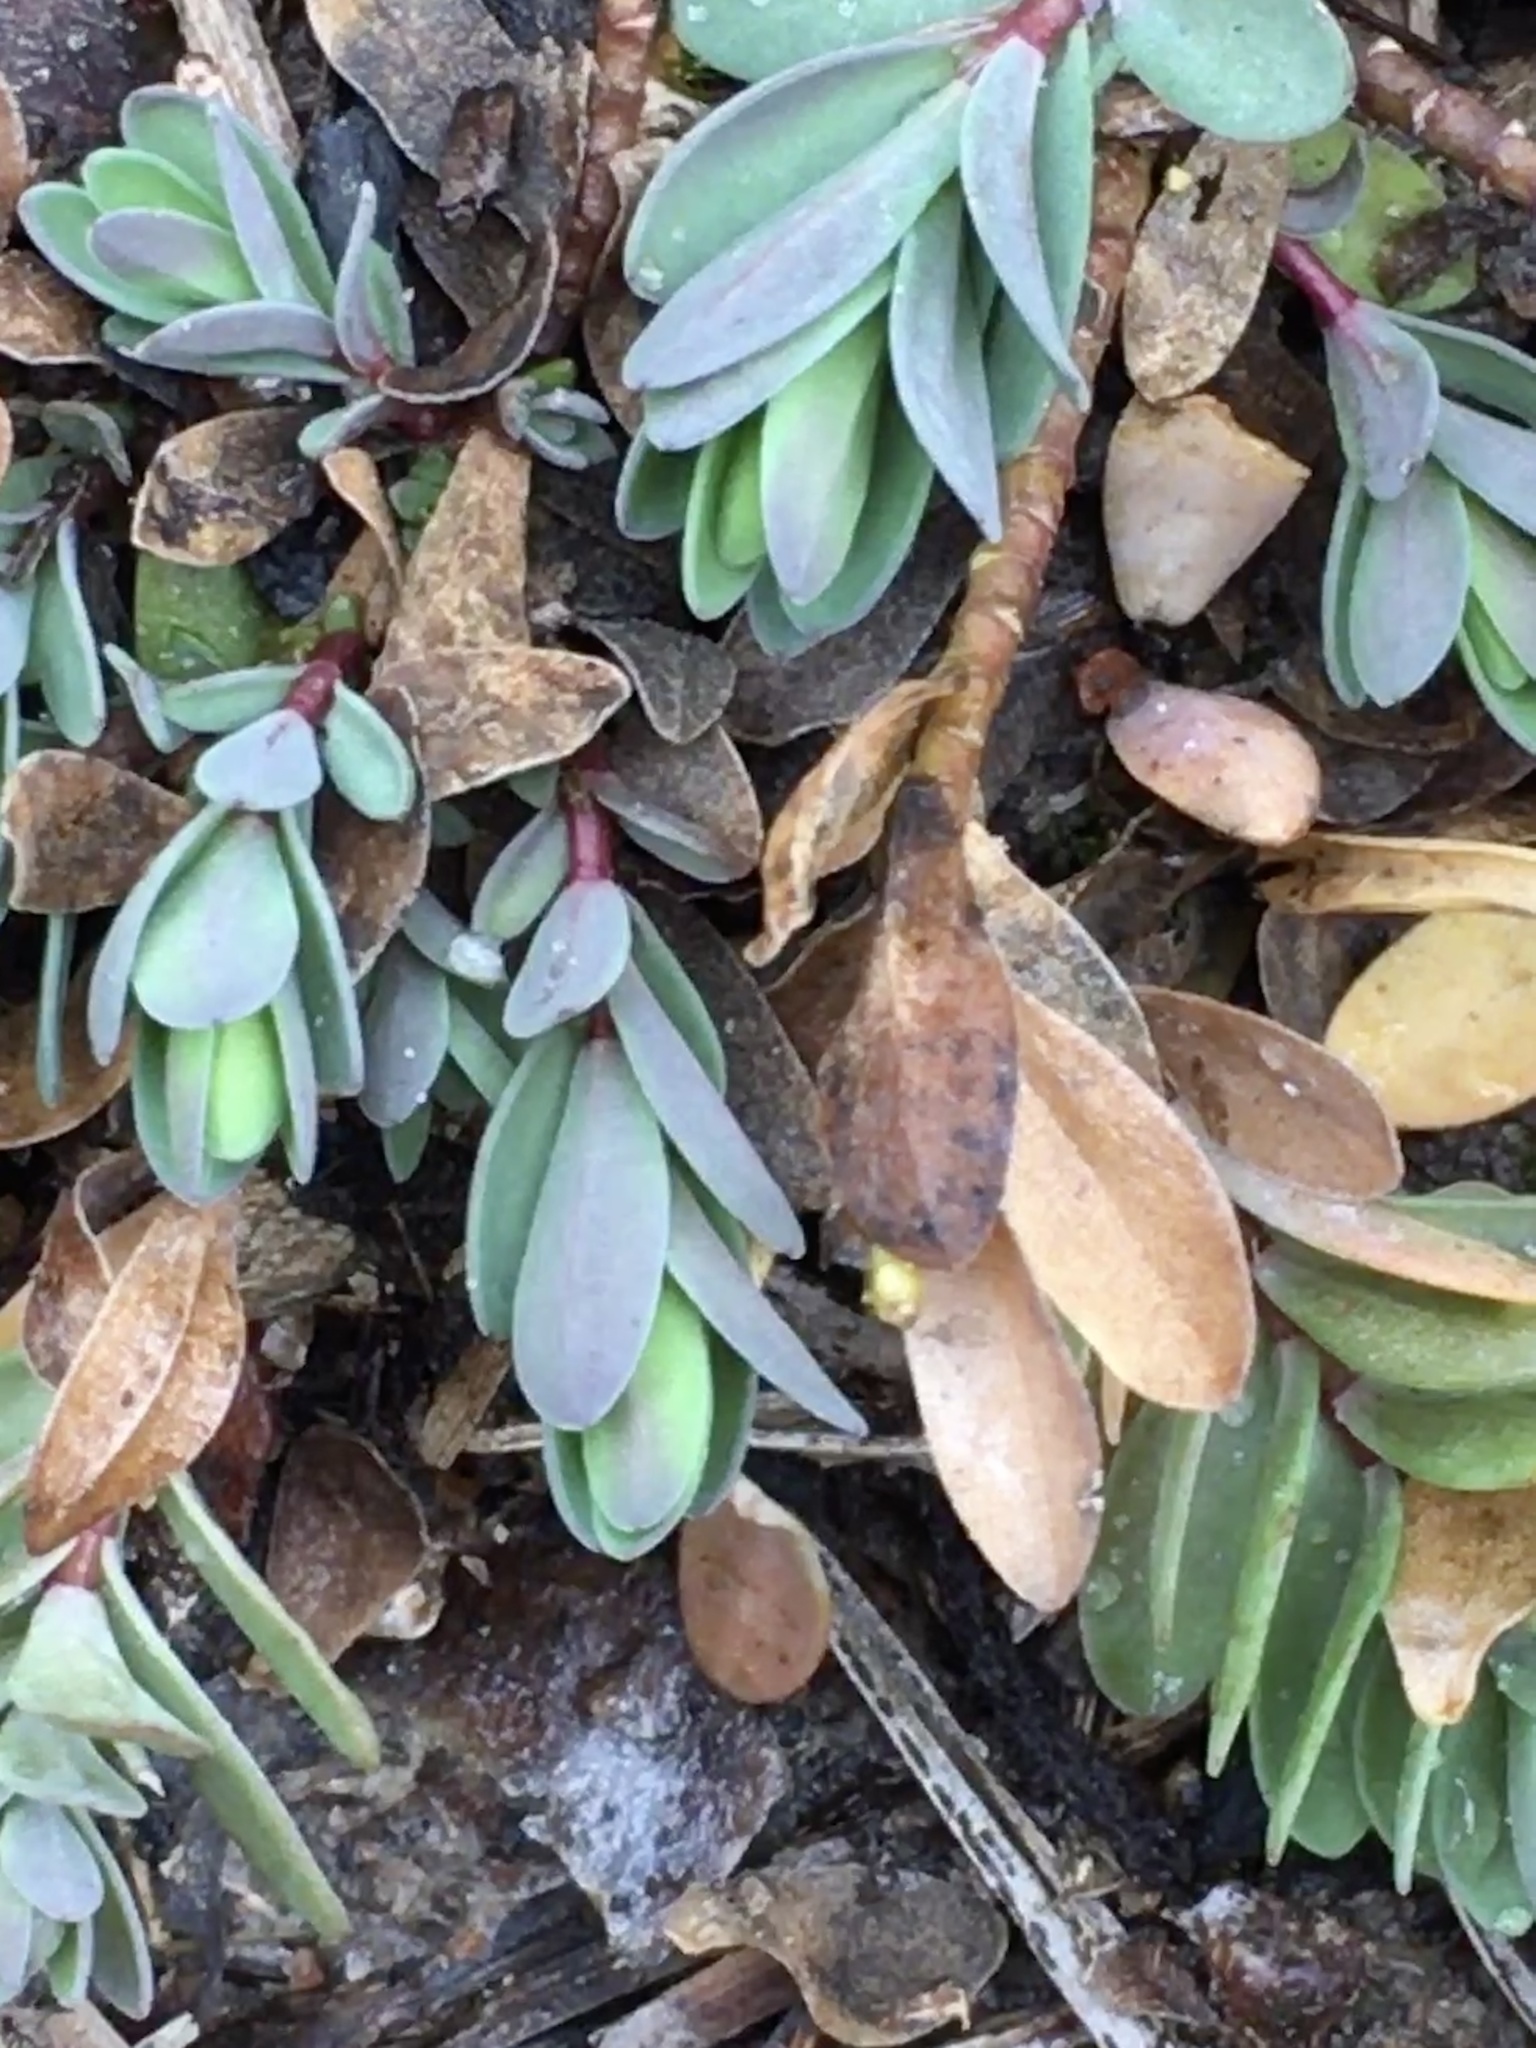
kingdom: Plantae
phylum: Tracheophyta
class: Magnoliopsida
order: Malpighiales
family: Hypericaceae
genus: Hypericum
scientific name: Hypericum hypericoides
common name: St. andrew's cross
